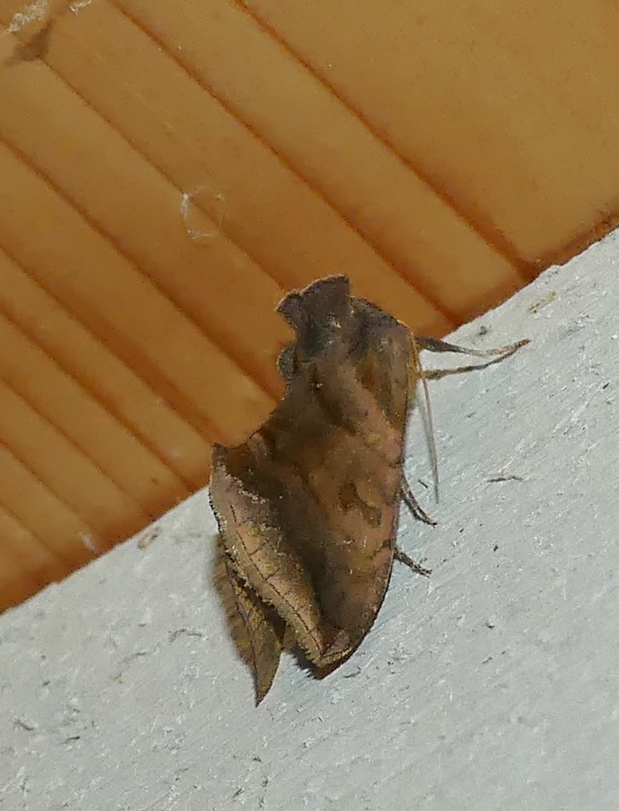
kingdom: Animalia
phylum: Arthropoda
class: Insecta
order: Lepidoptera
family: Noctuidae
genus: Allagrapha
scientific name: Allagrapha aerea
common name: Unspotted looper moth
